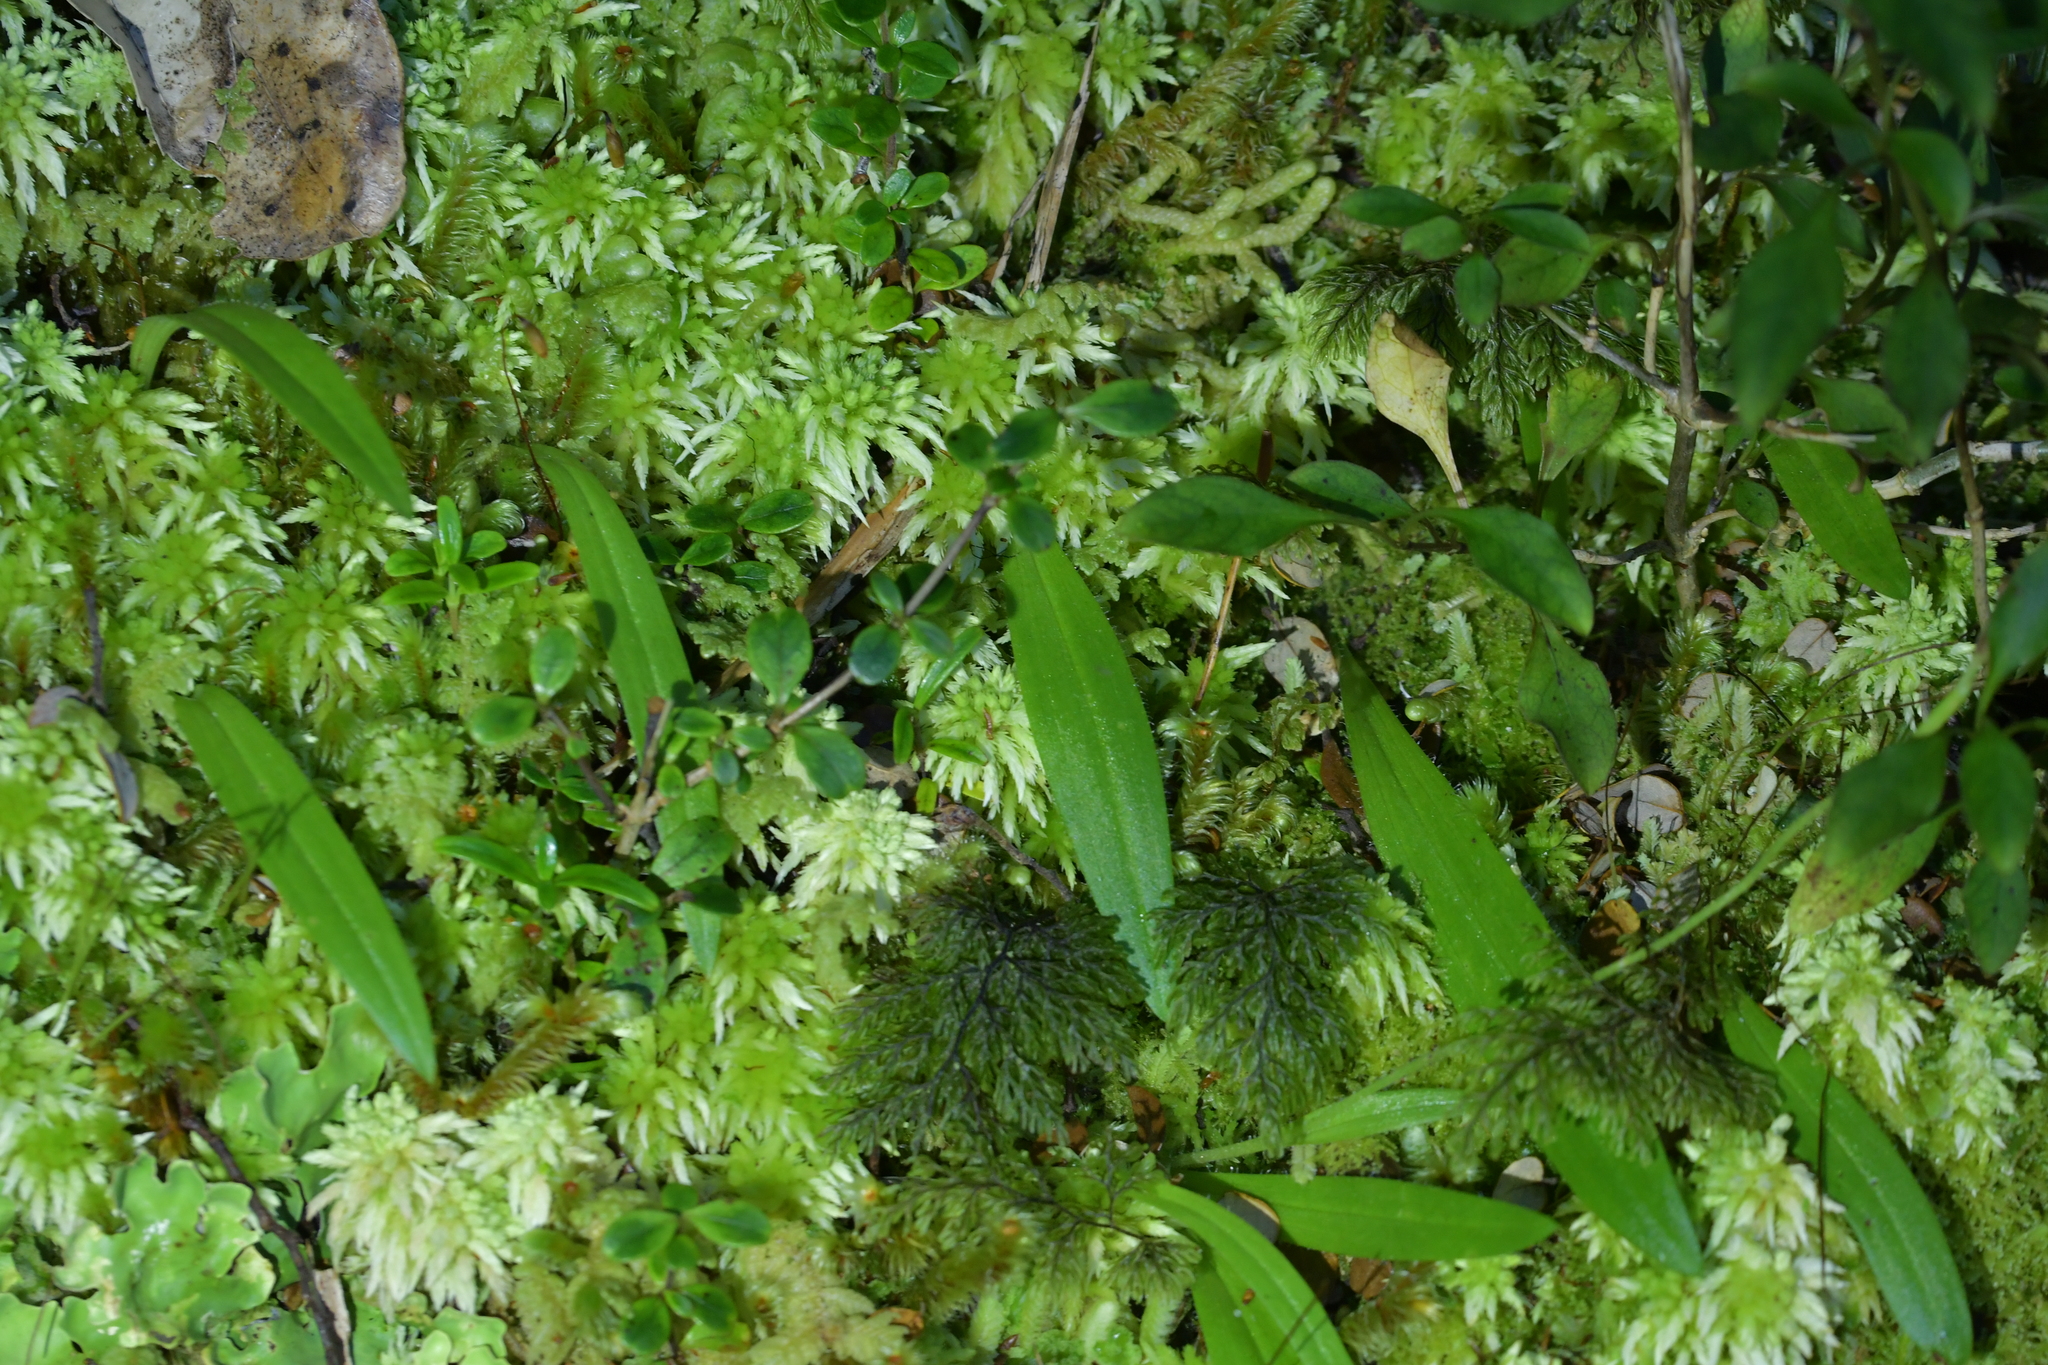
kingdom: Plantae
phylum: Tracheophyta
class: Liliopsida
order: Asparagales
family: Orchidaceae
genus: Aporostylis
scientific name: Aporostylis bifolia
